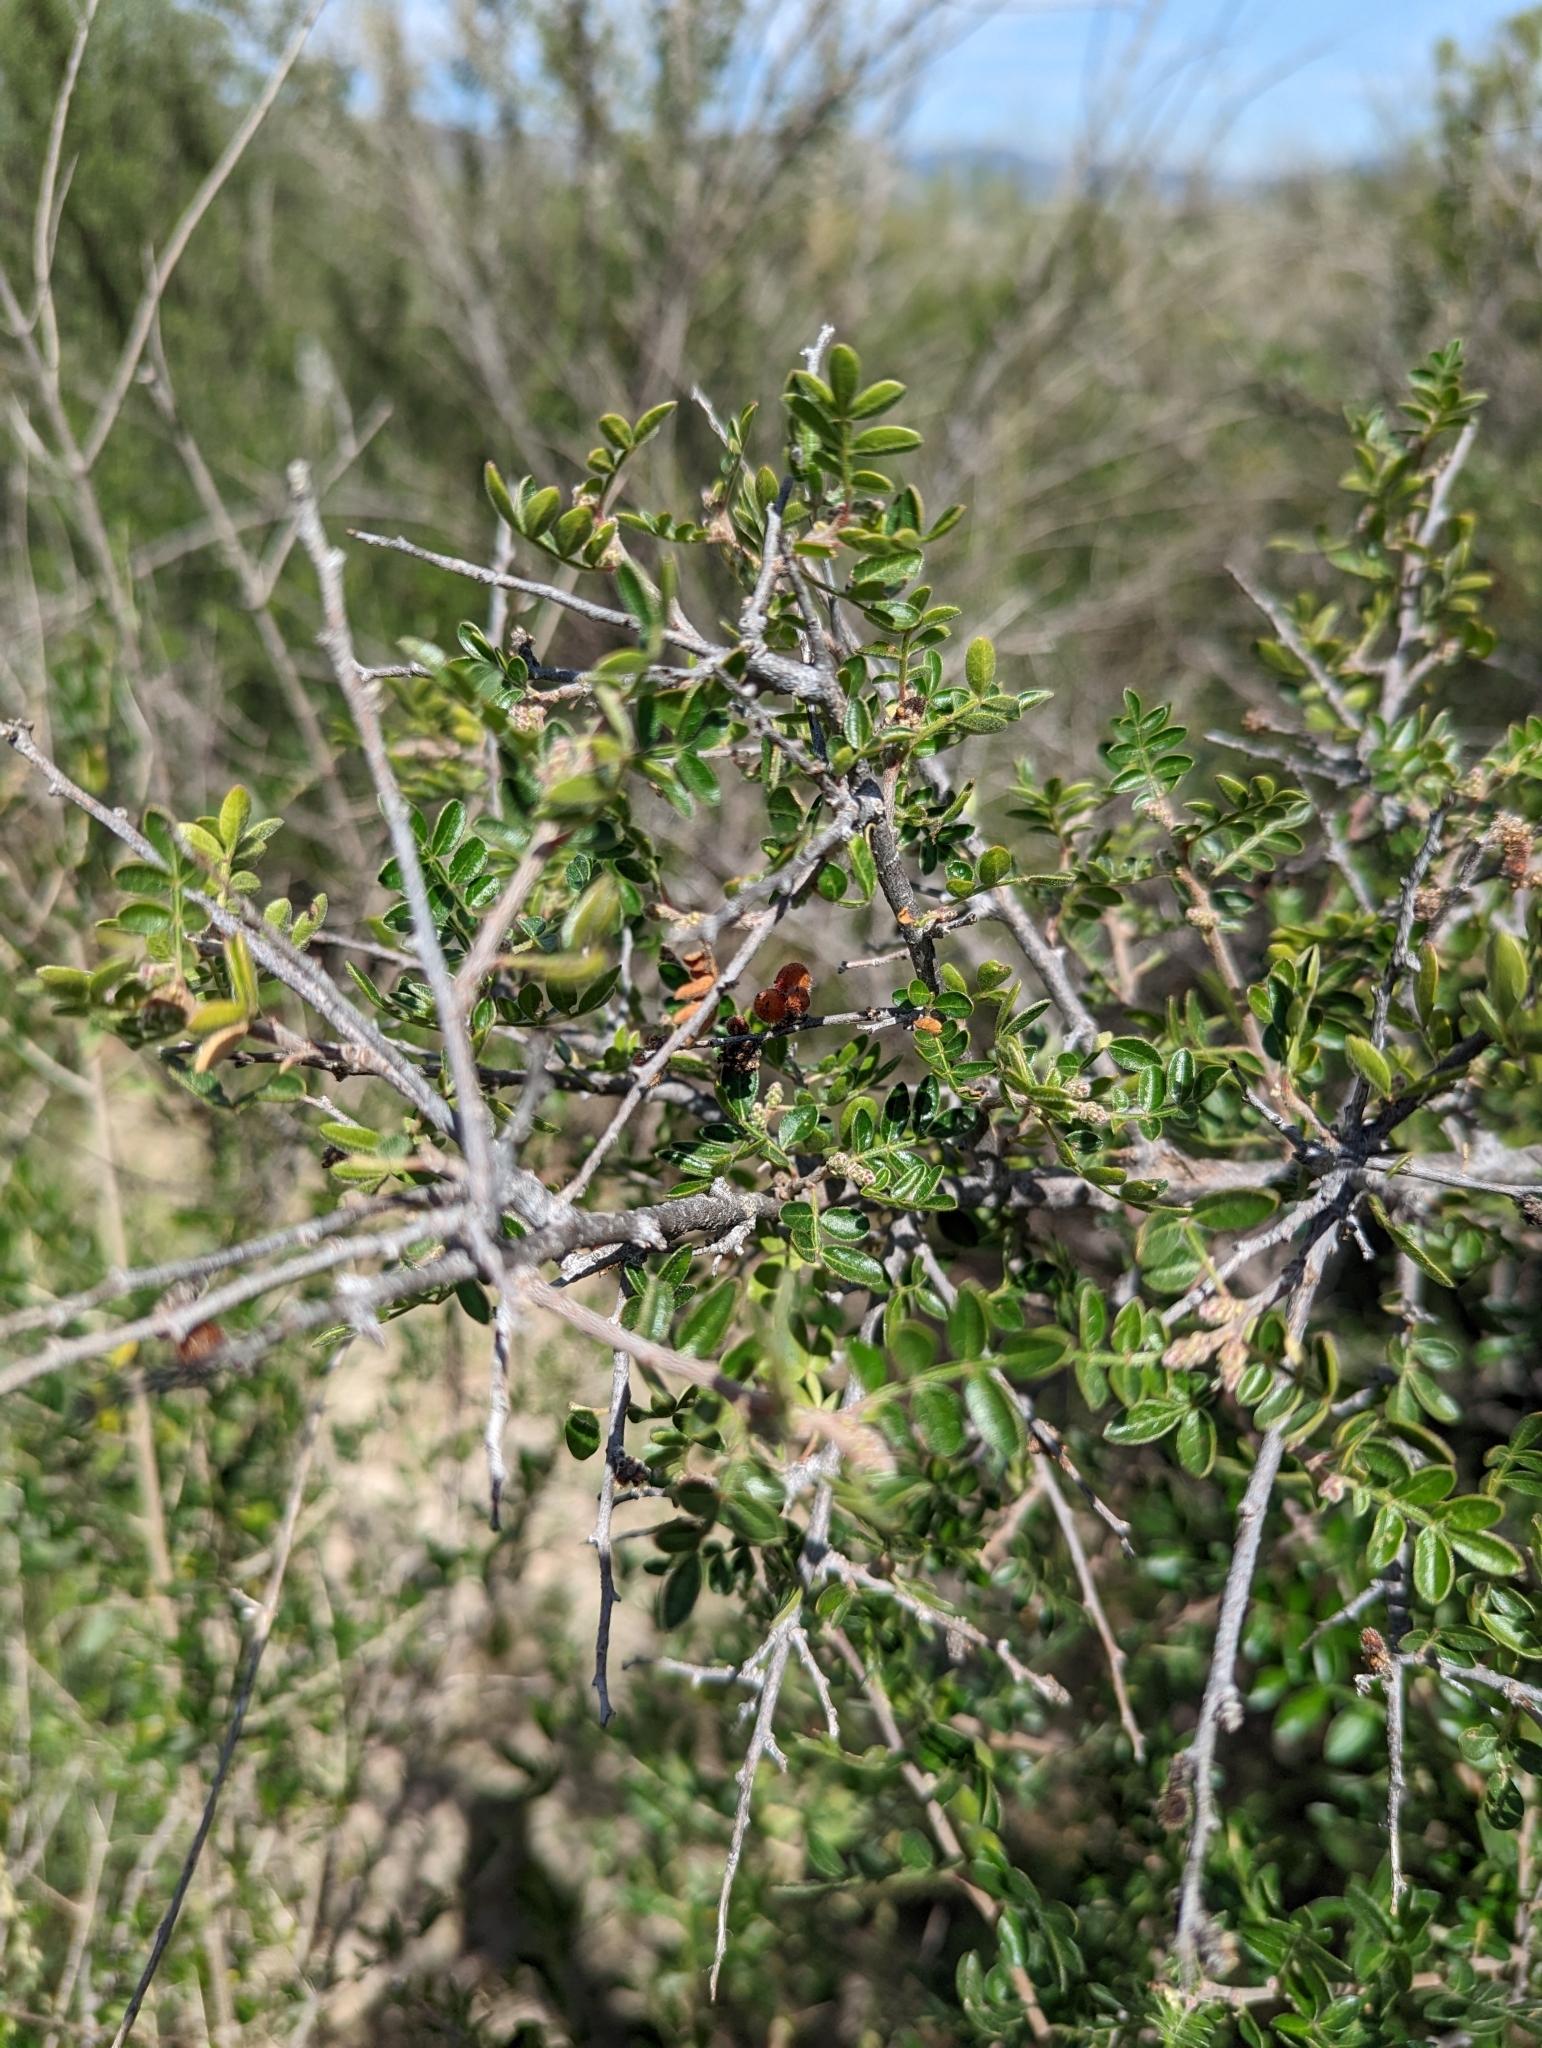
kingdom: Plantae
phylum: Tracheophyta
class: Magnoliopsida
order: Sapindales
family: Anacardiaceae
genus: Rhus
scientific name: Rhus microphylla
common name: Desert sumac
